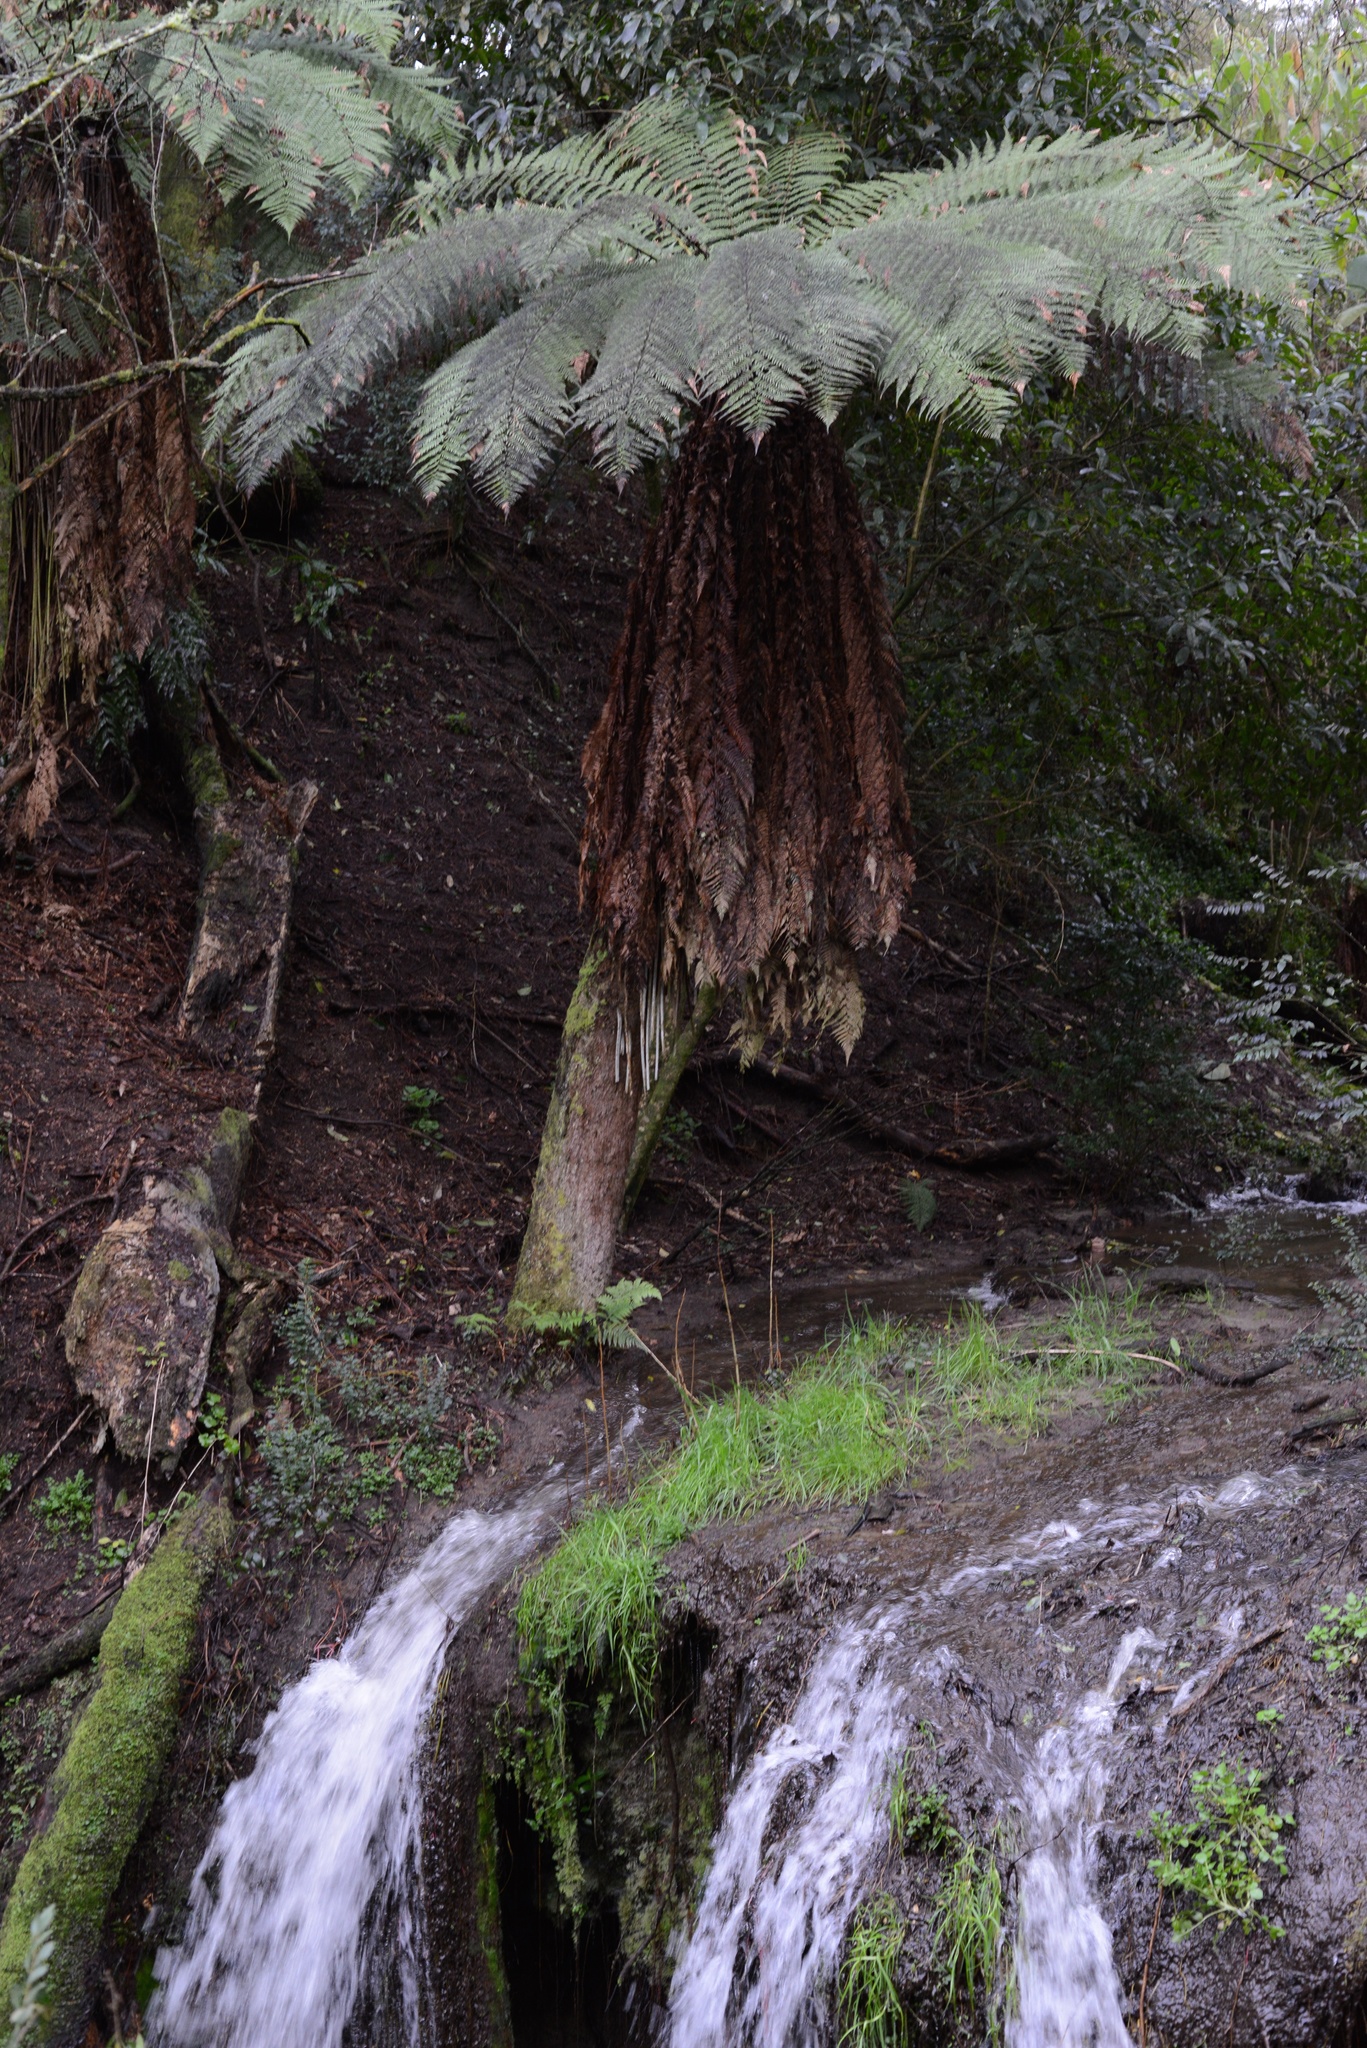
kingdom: Plantae
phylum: Tracheophyta
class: Polypodiopsida
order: Cyatheales
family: Dicksoniaceae
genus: Dicksonia
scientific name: Dicksonia fibrosa
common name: Golden tree fern
